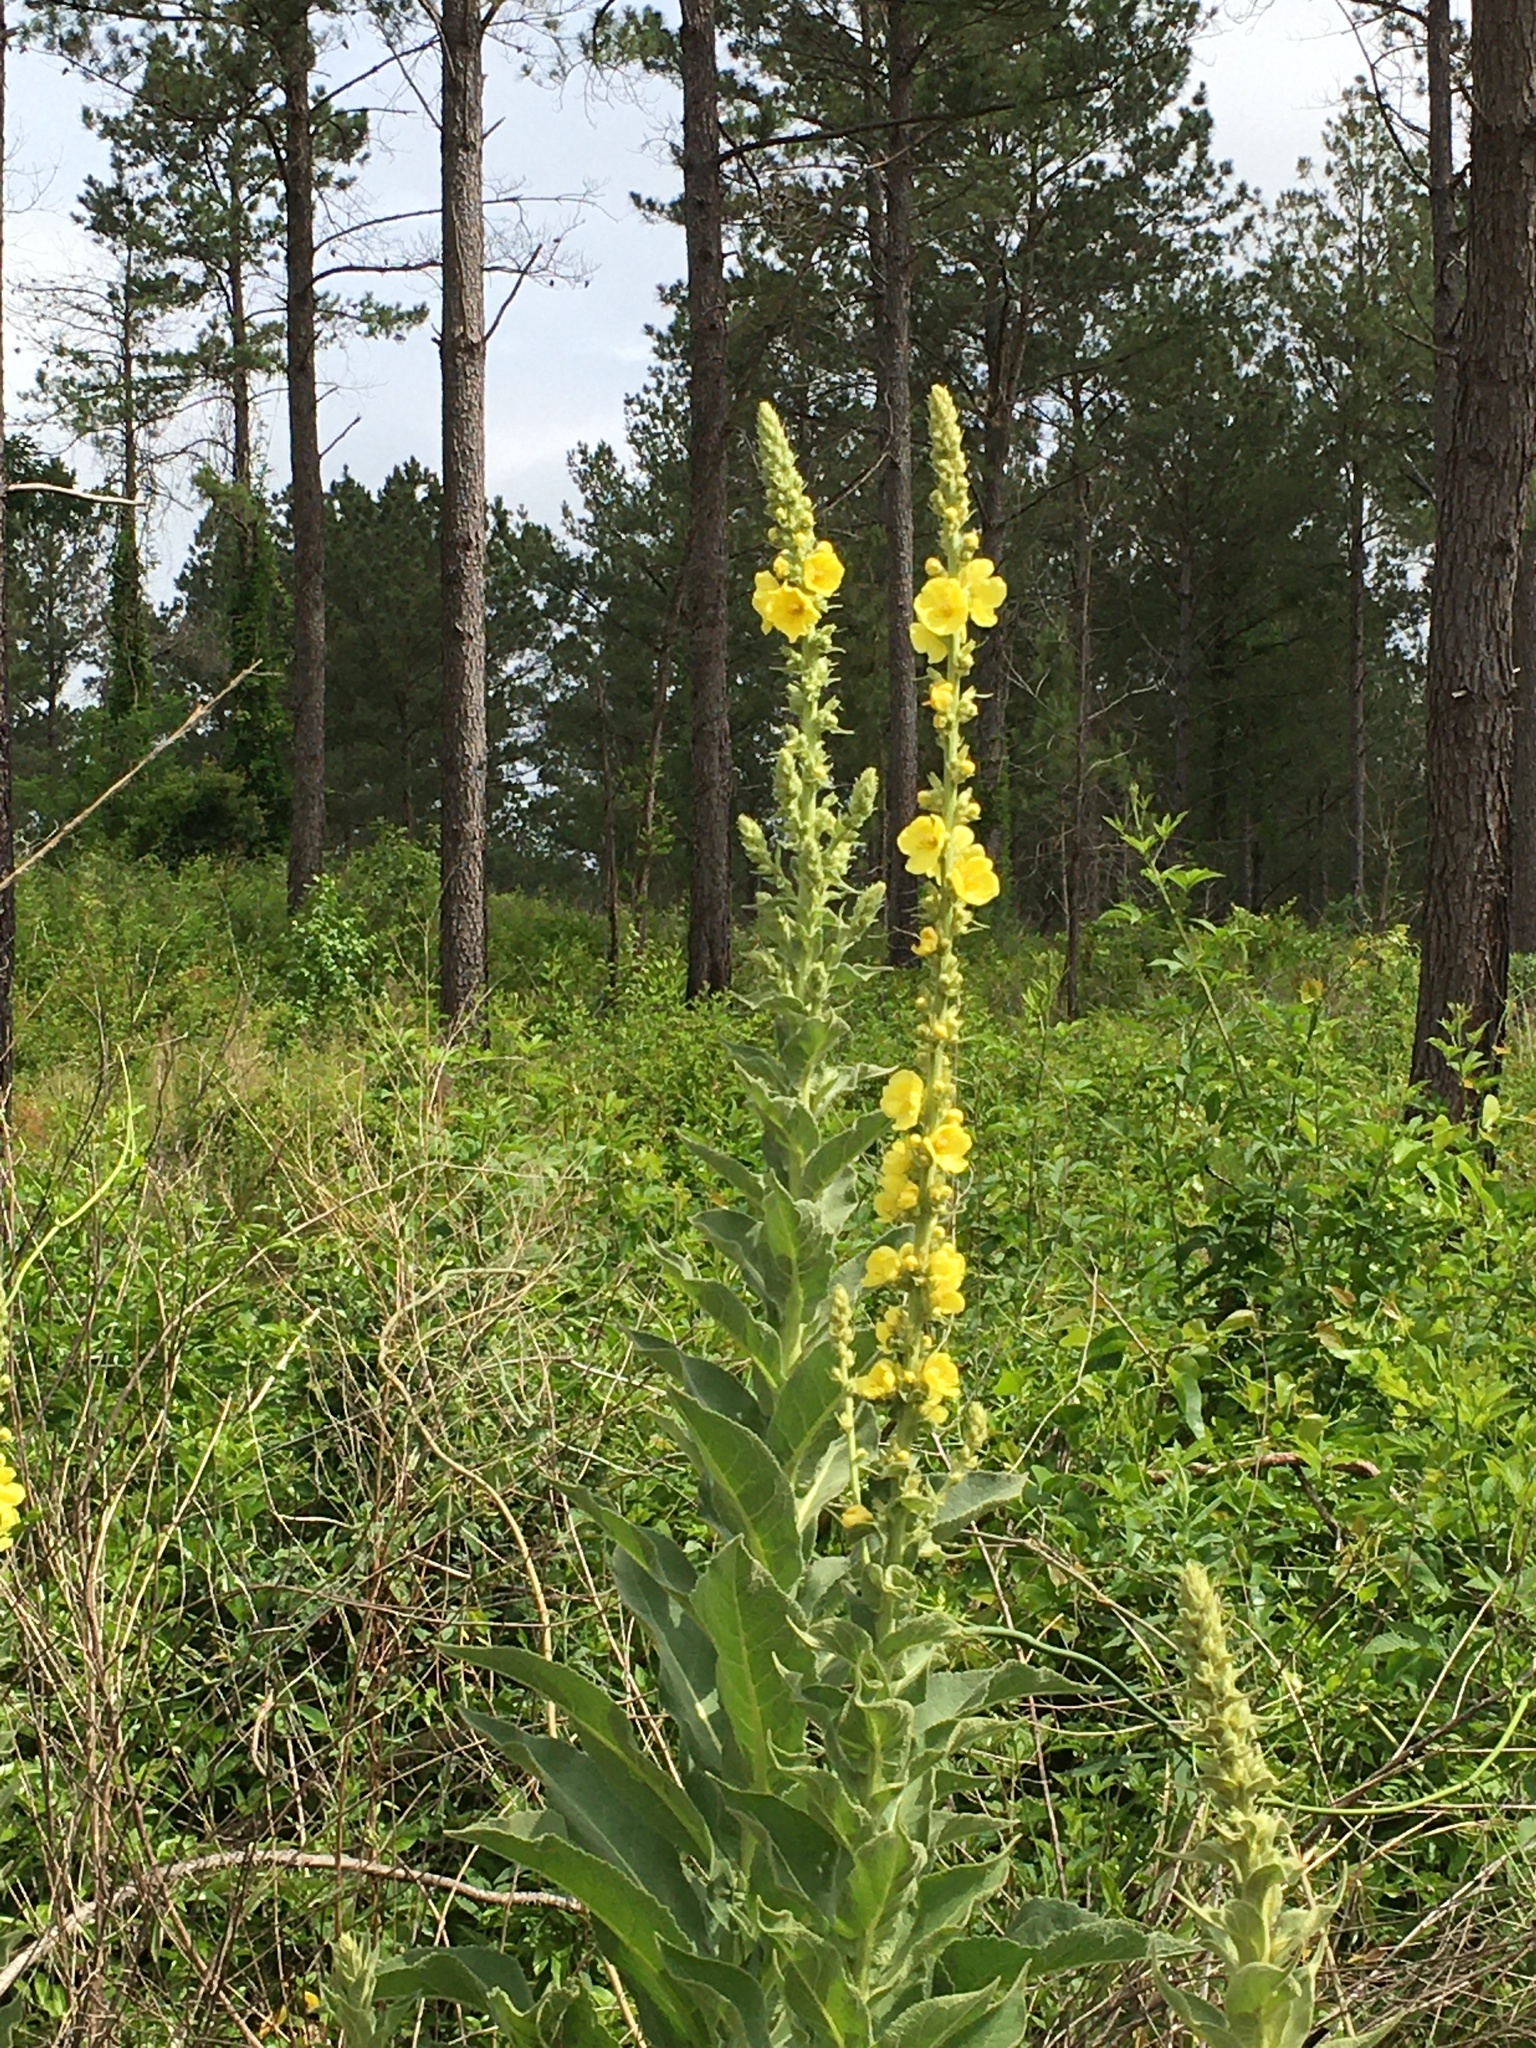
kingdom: Plantae
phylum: Tracheophyta
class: Magnoliopsida
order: Lamiales
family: Scrophulariaceae
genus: Verbascum
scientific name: Verbascum phlomoides
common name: Orange mullein
